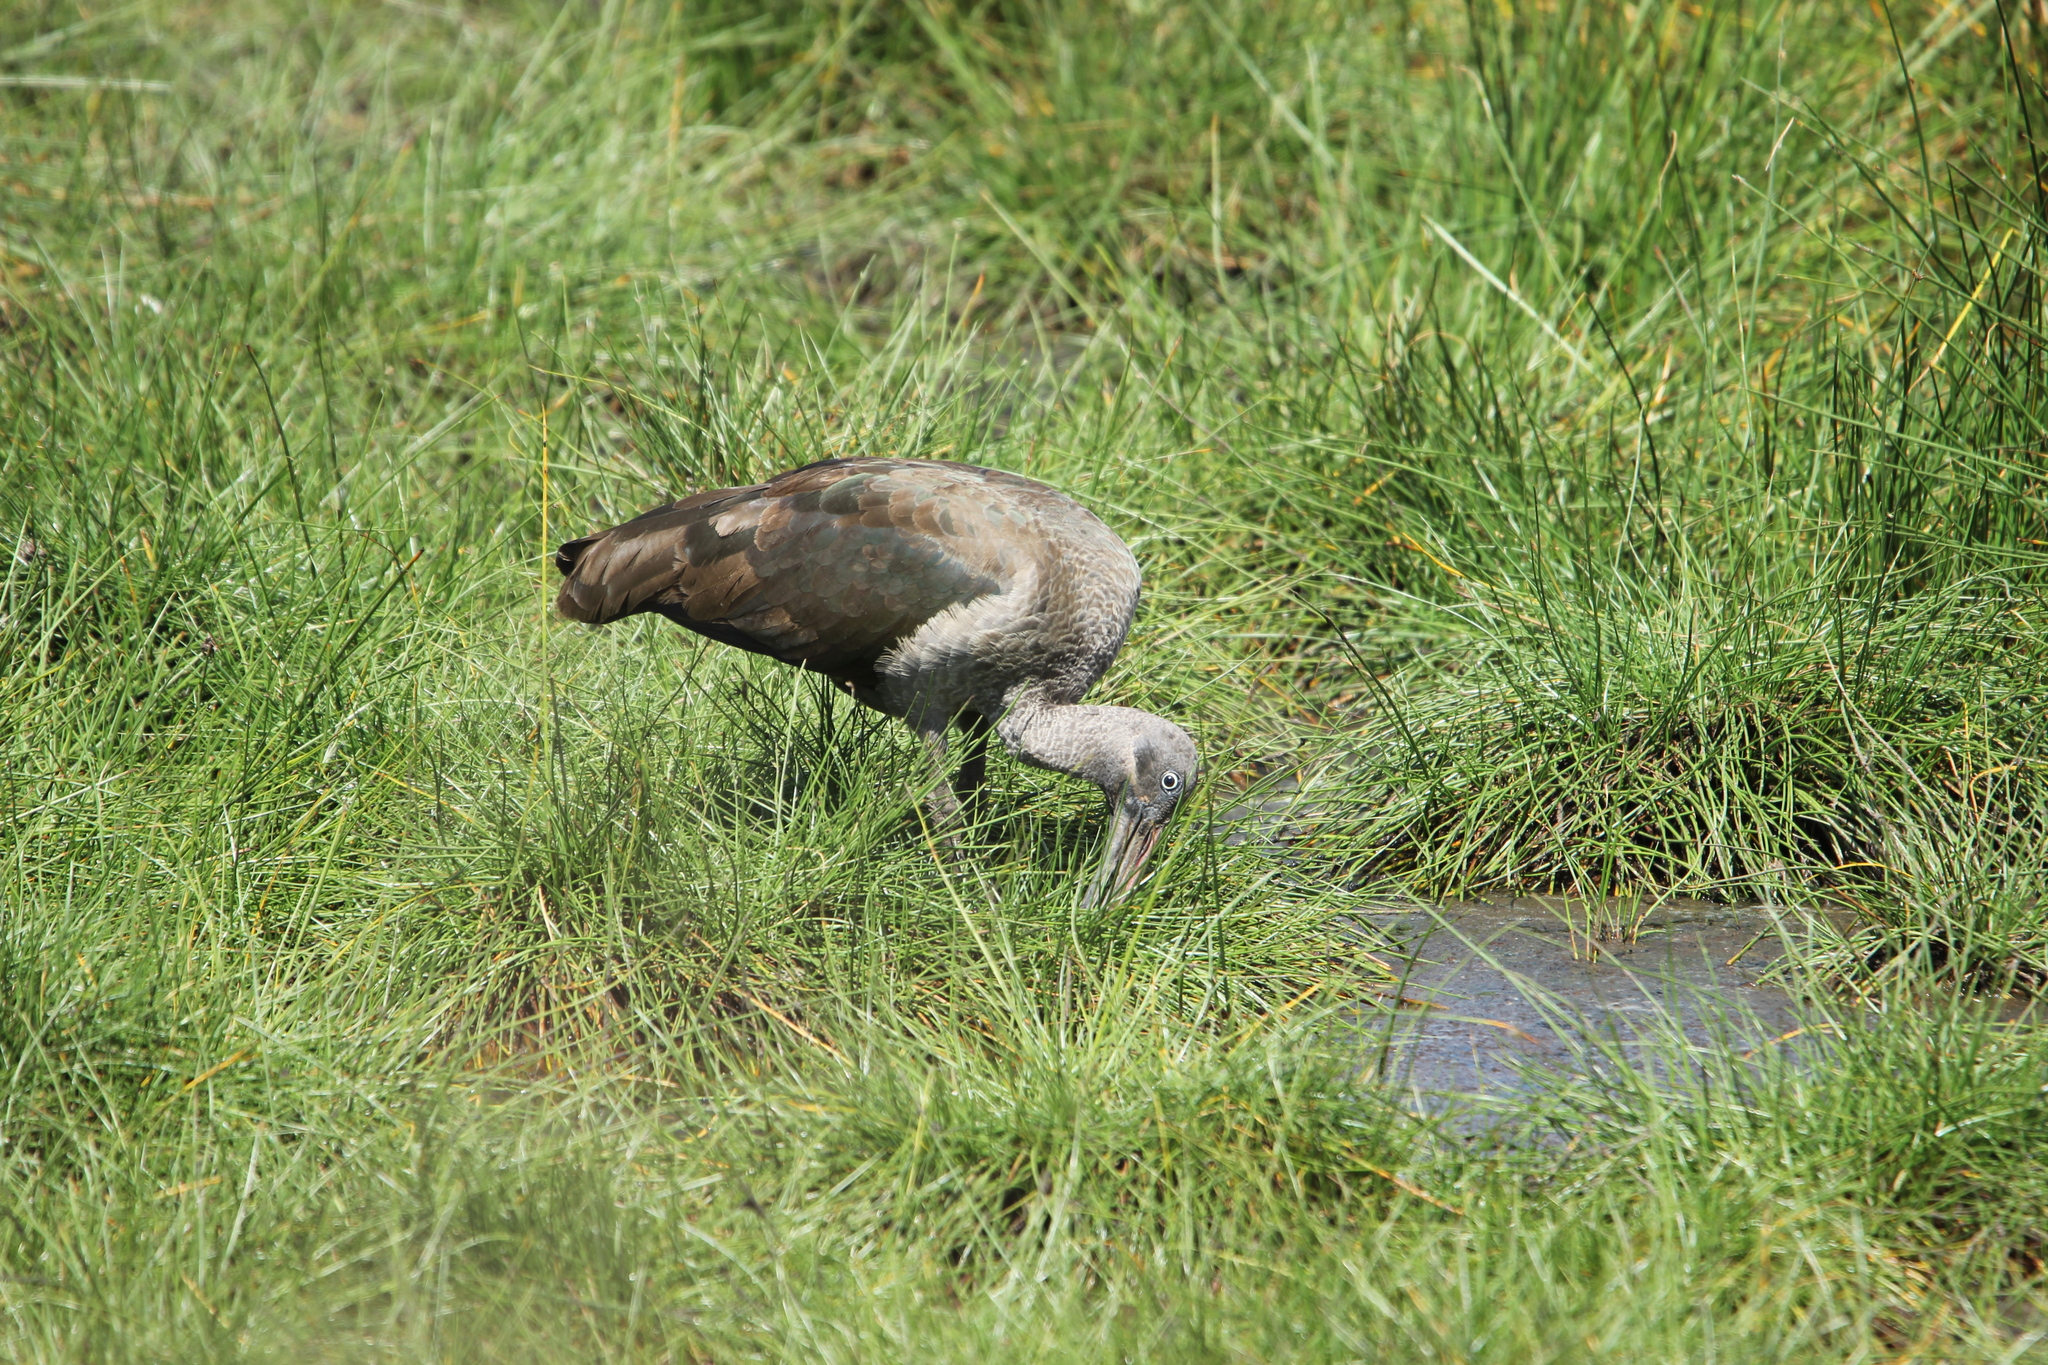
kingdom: Animalia
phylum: Chordata
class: Aves
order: Pelecaniformes
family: Threskiornithidae
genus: Bostrychia
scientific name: Bostrychia hagedash
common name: Hadada ibis
